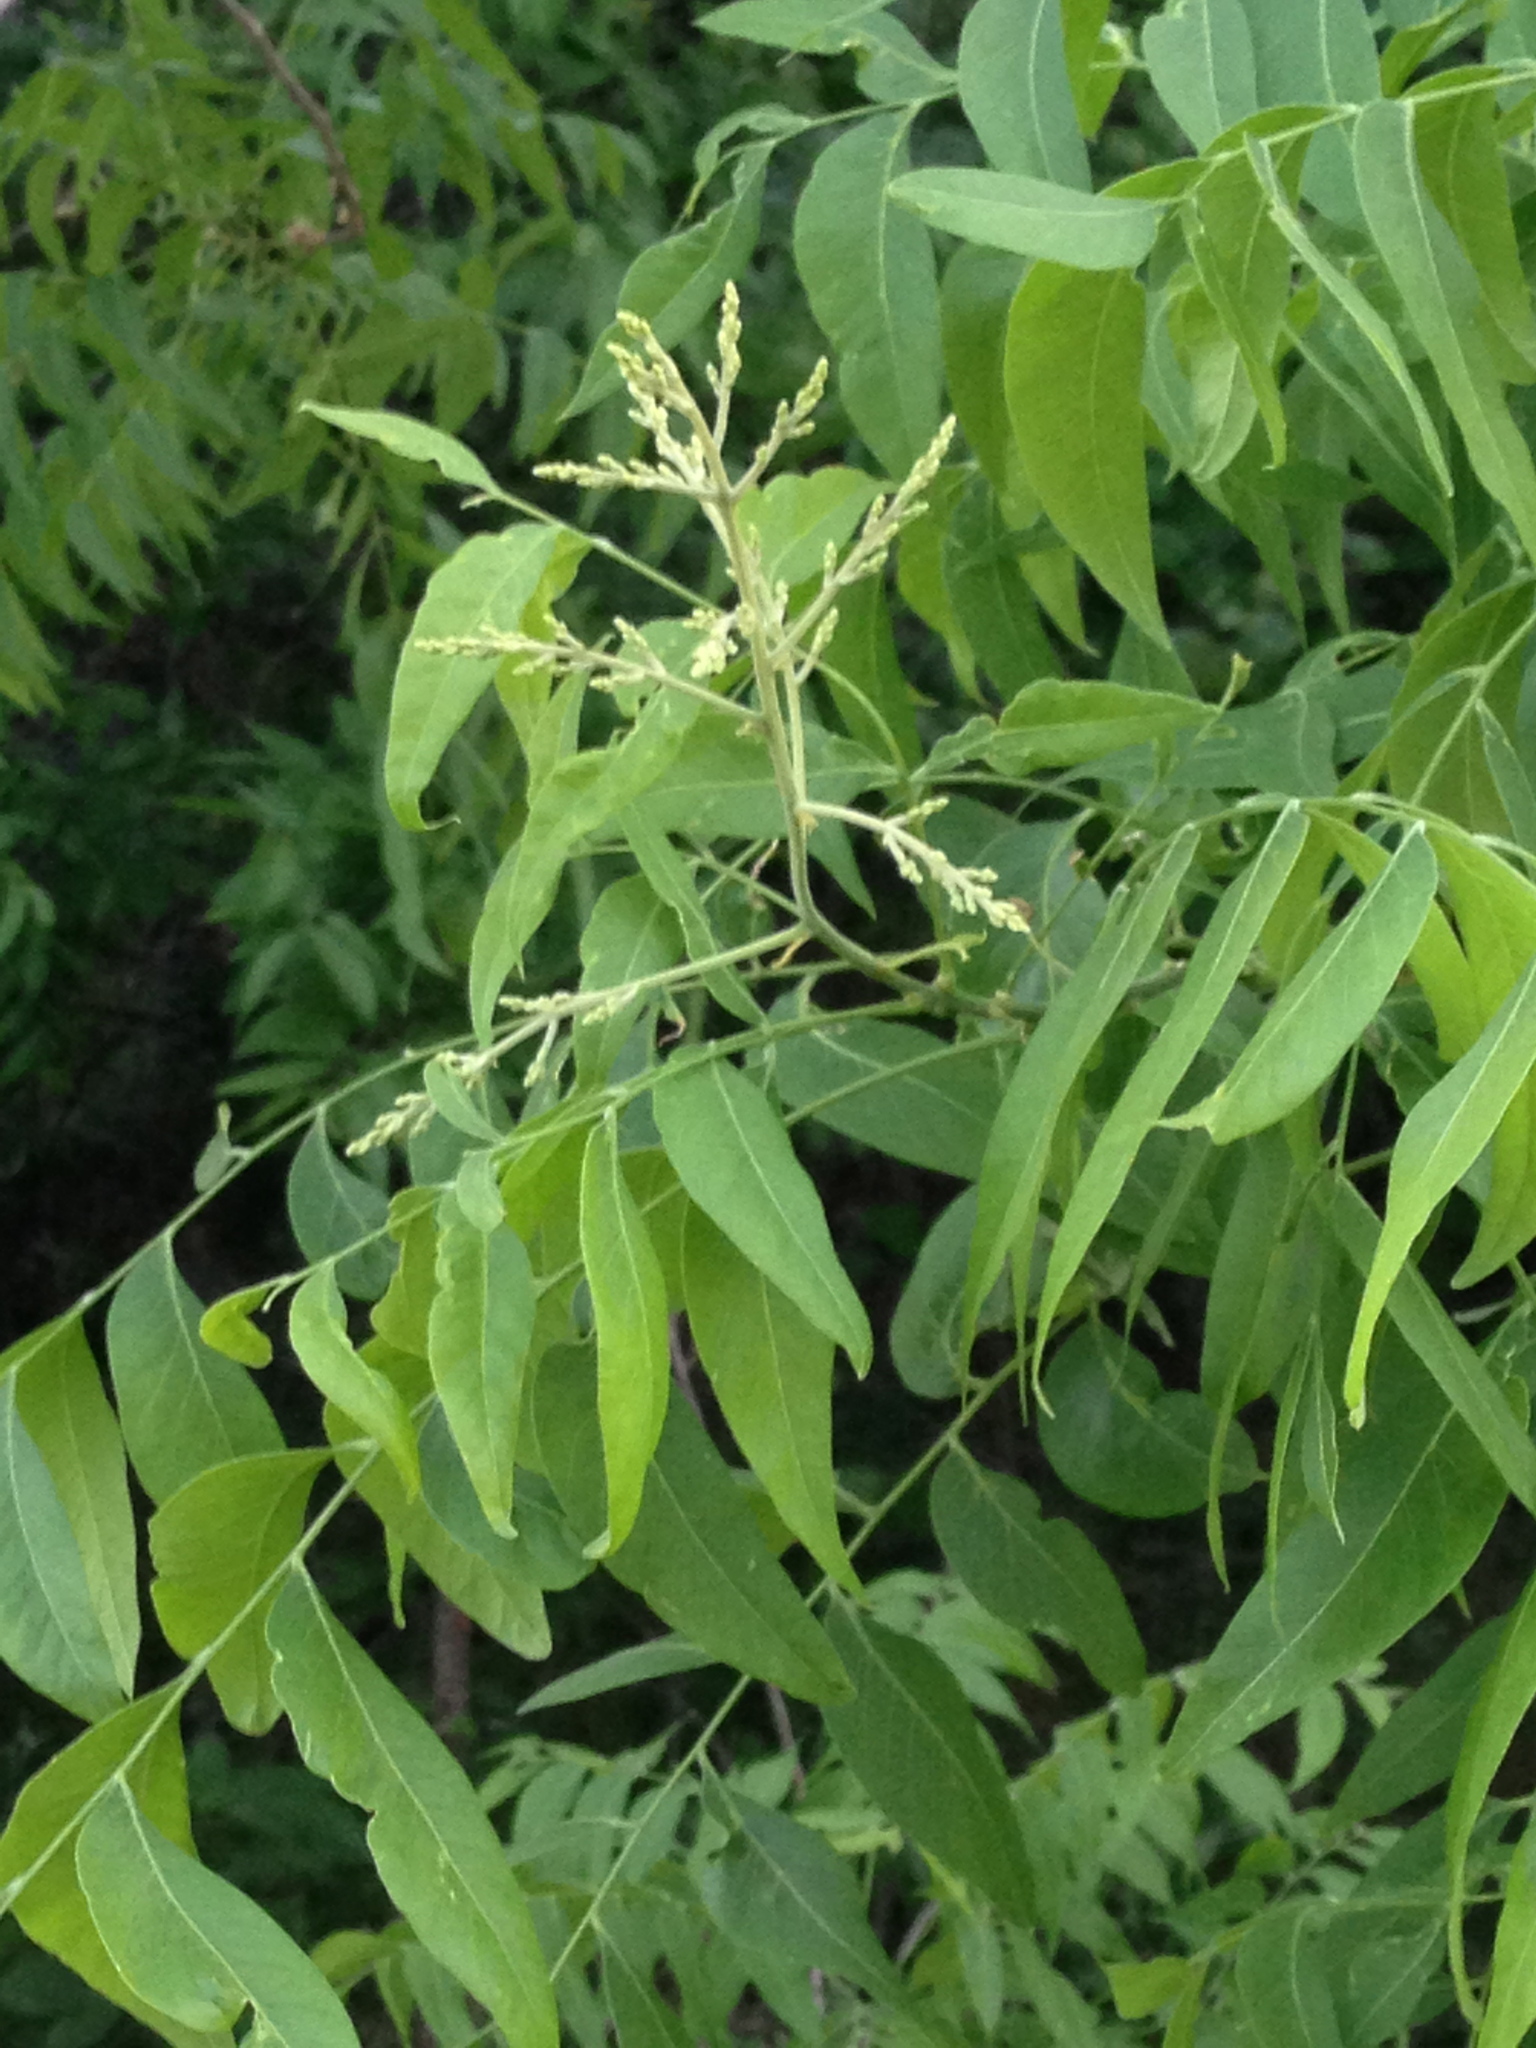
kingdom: Plantae
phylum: Tracheophyta
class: Magnoliopsida
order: Sapindales
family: Sapindaceae
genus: Sapindus
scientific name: Sapindus drummondii
